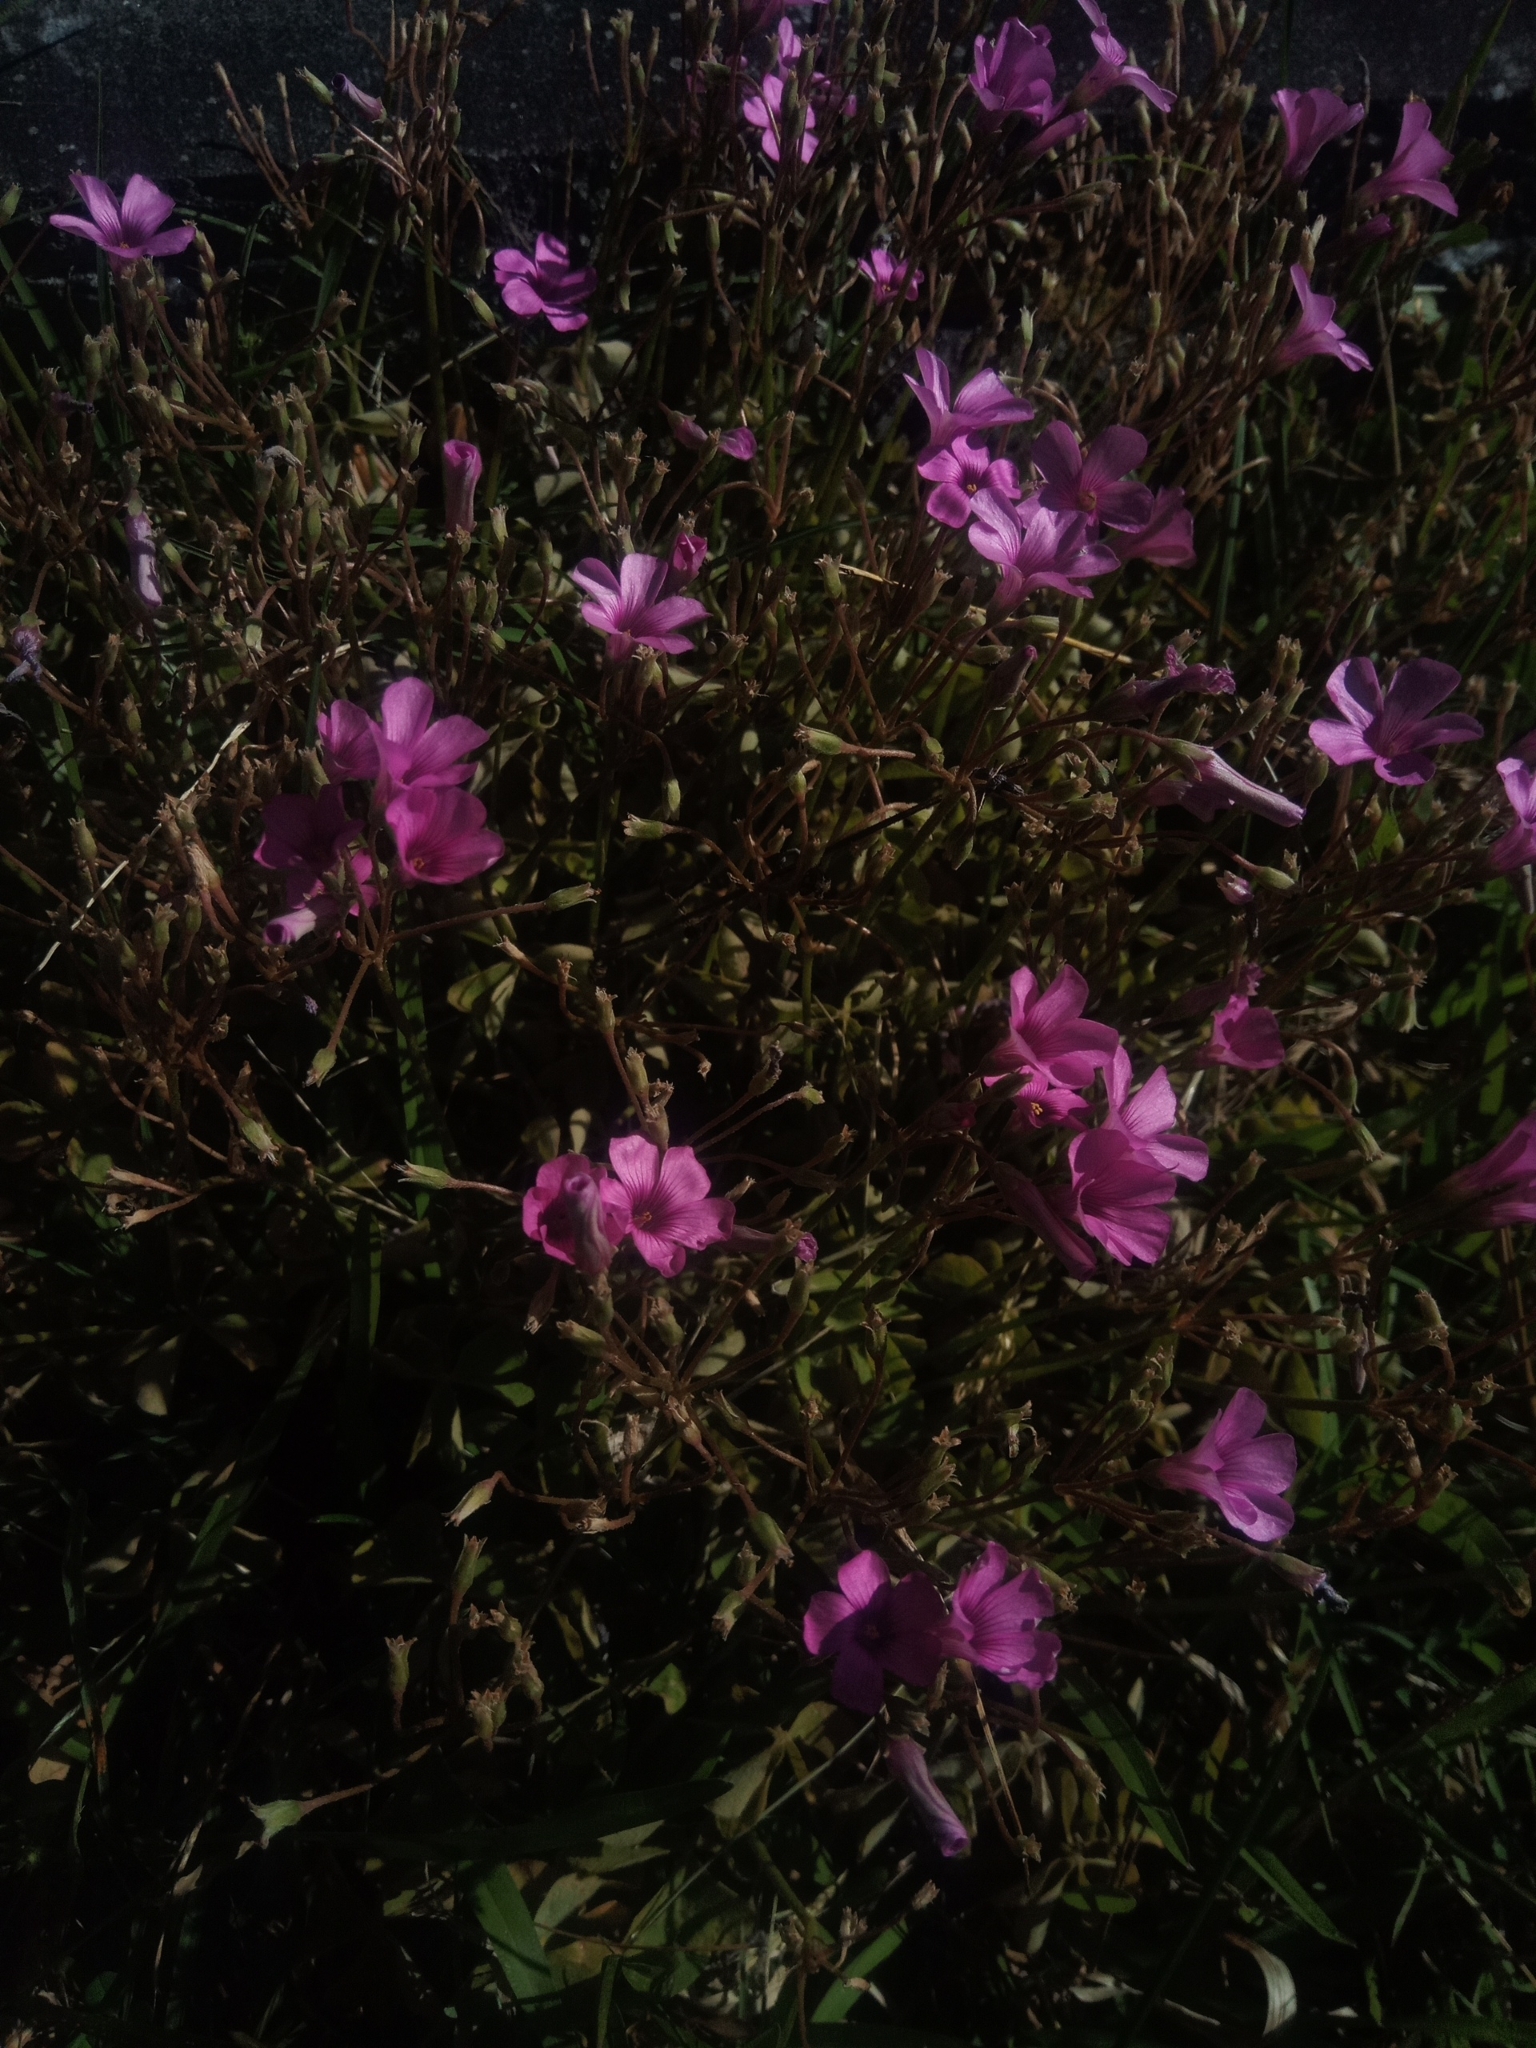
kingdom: Plantae
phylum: Tracheophyta
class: Magnoliopsida
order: Oxalidales
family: Oxalidaceae
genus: Oxalis
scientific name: Oxalis articulata
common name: Pink-sorrel
